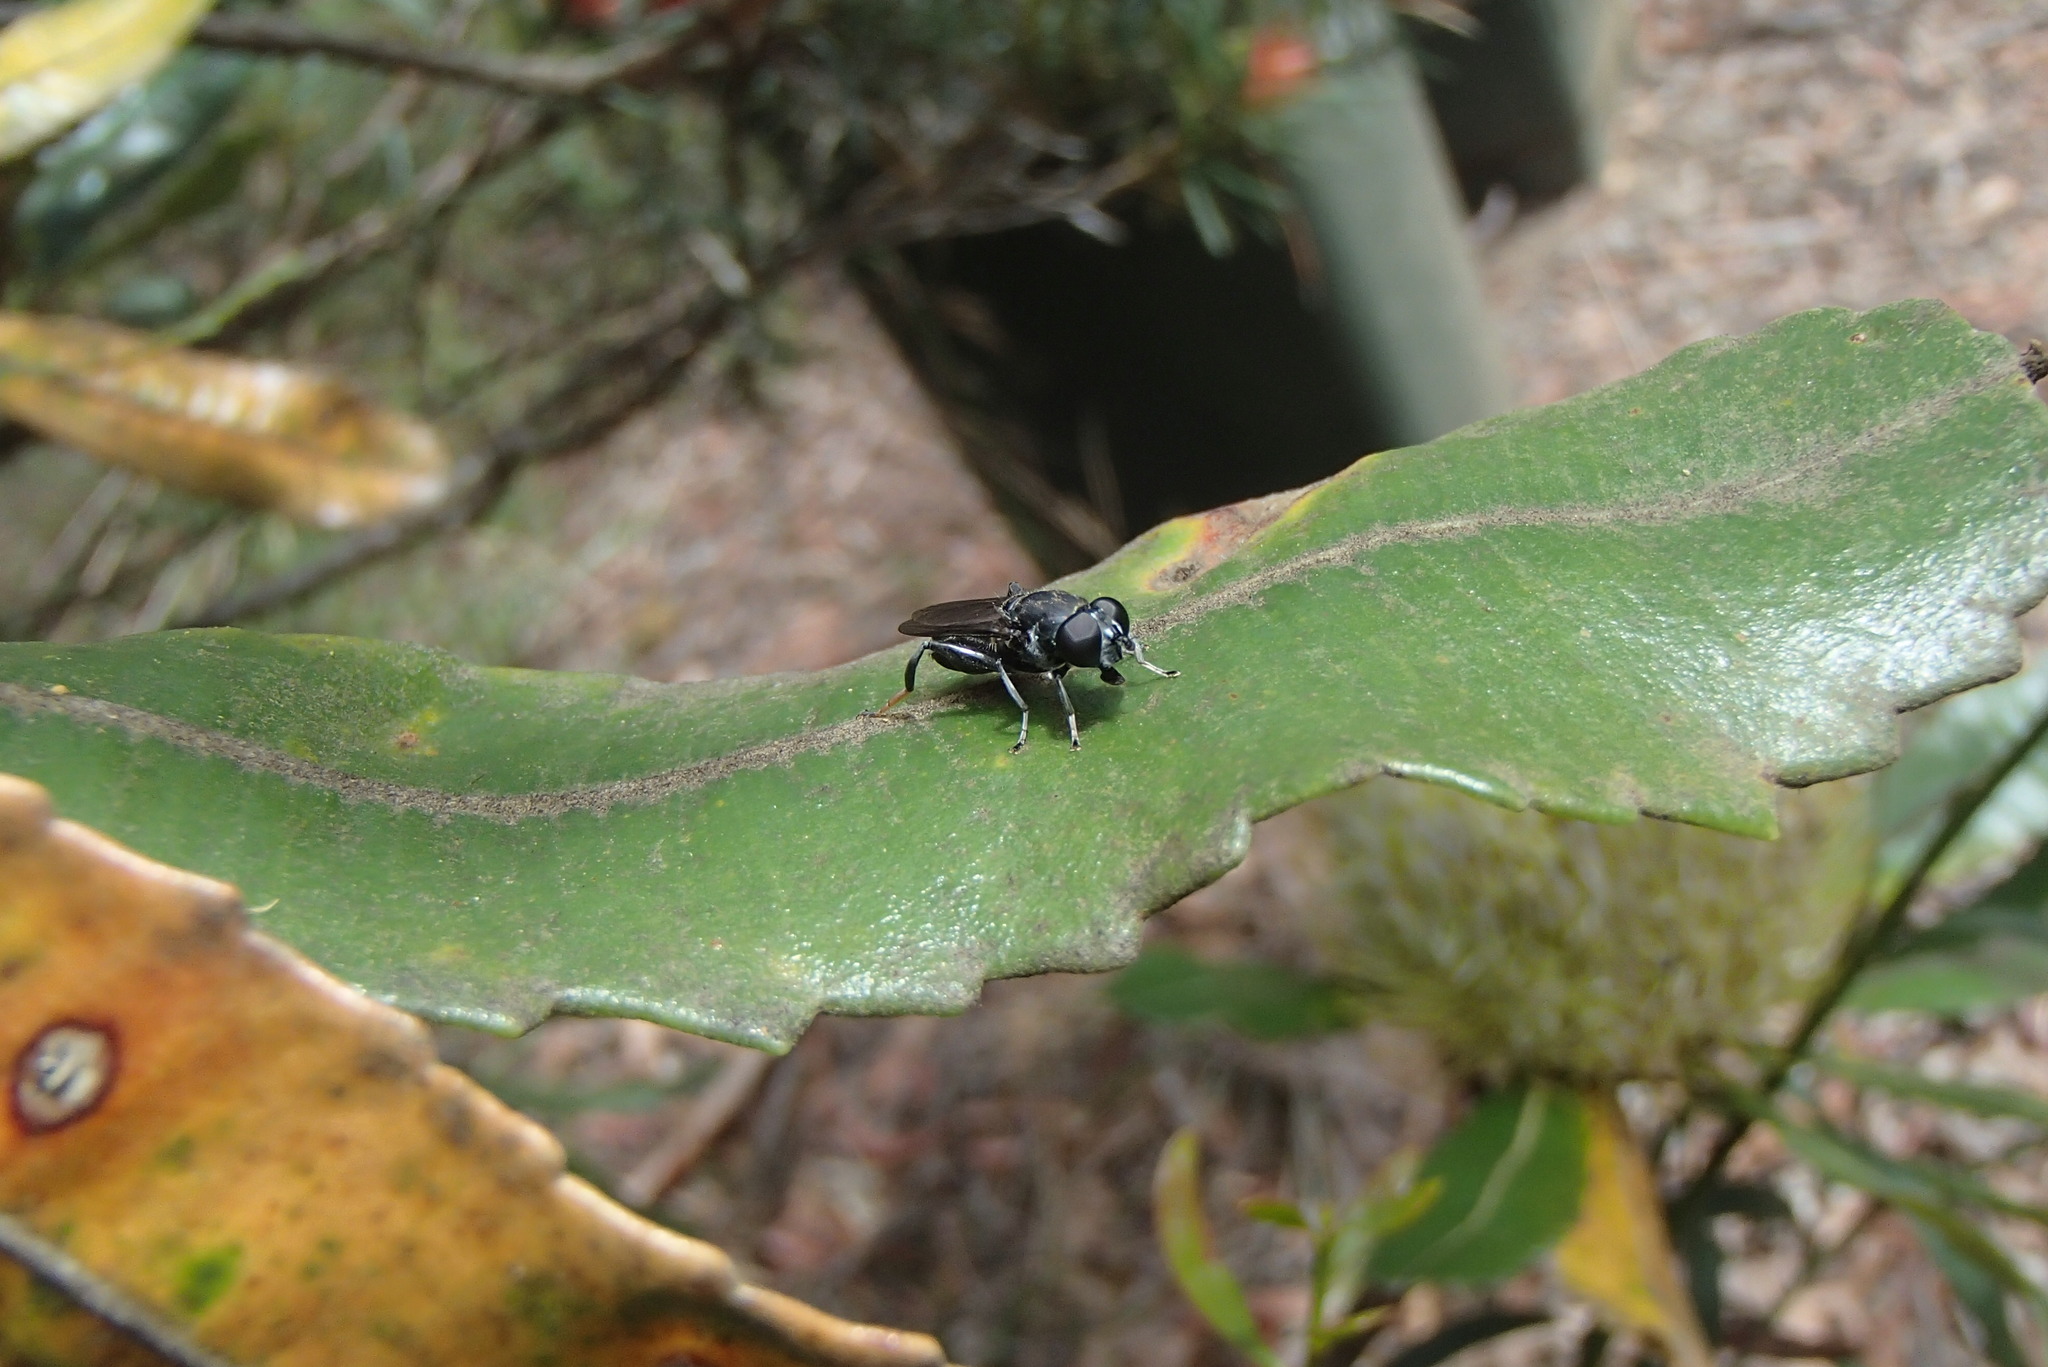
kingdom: Animalia
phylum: Arthropoda
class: Insecta
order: Diptera
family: Syrphidae
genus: Xylota
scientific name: Xylota flavitarsis
